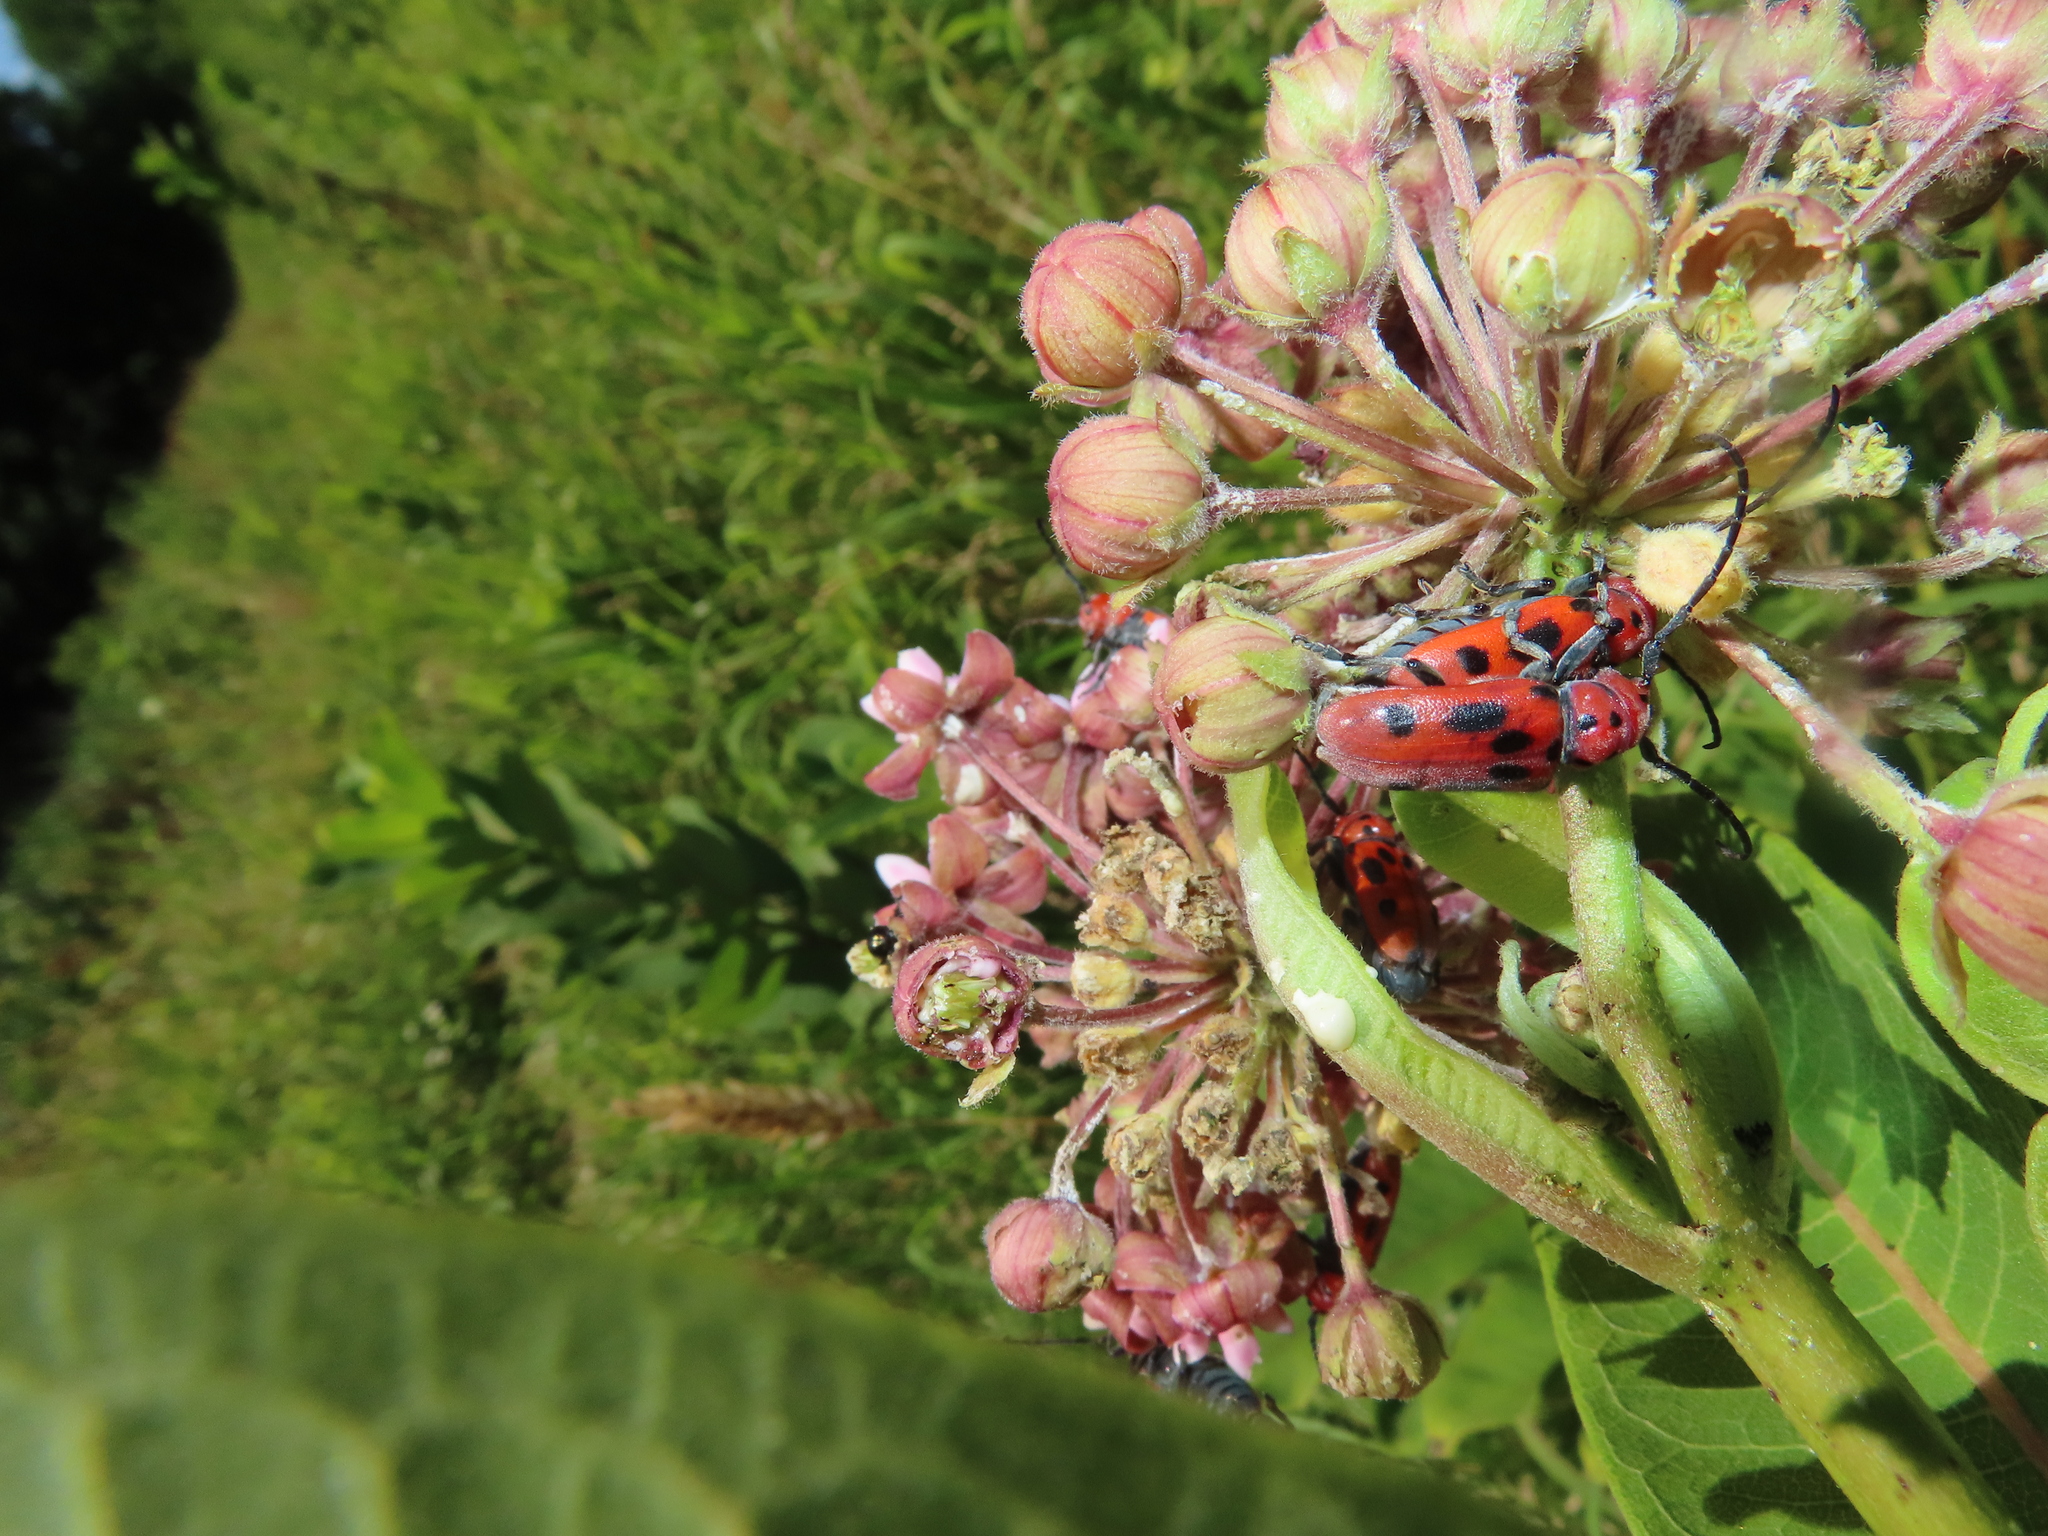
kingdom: Animalia
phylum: Arthropoda
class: Insecta
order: Coleoptera
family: Cerambycidae
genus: Tetraopes
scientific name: Tetraopes tetrophthalmus
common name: Red milkweed beetle
